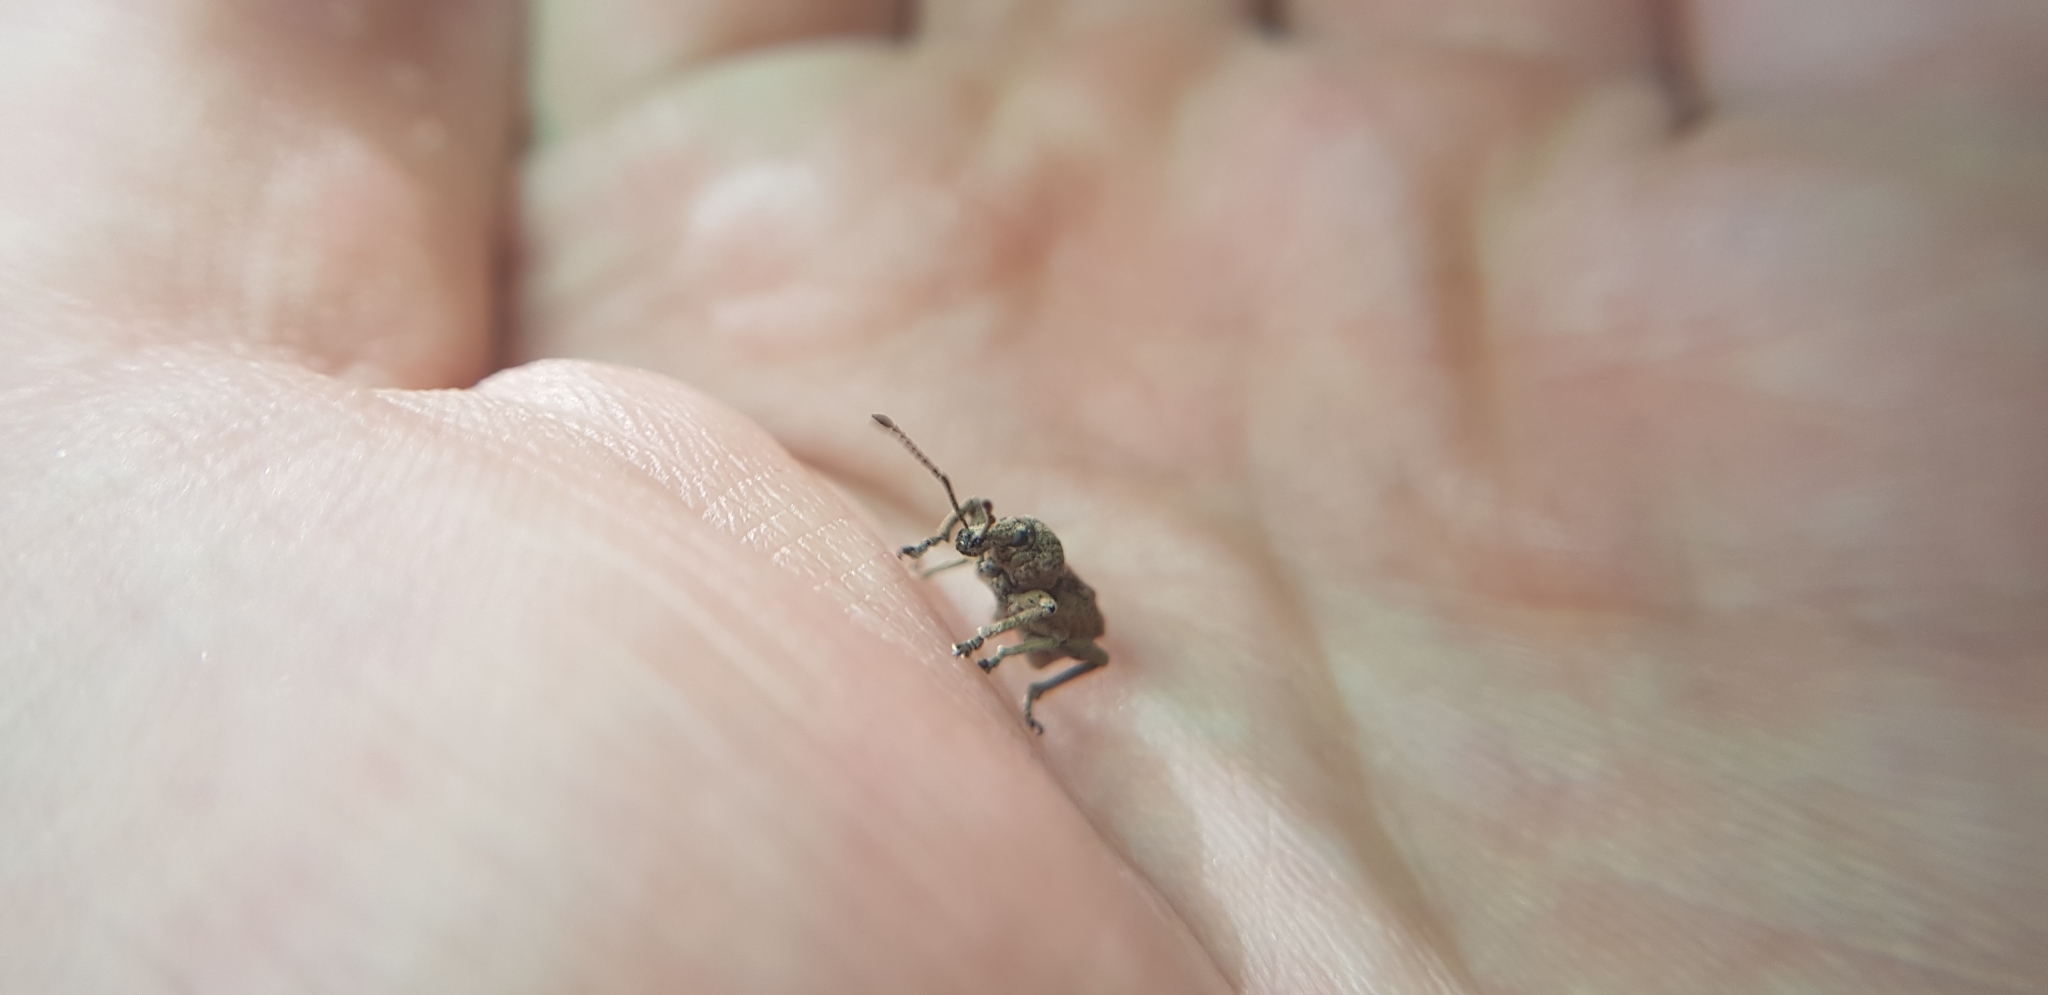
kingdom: Animalia
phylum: Arthropoda
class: Insecta
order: Coleoptera
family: Curculionidae
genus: Leptopius
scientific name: Leptopius tetraphysodes
